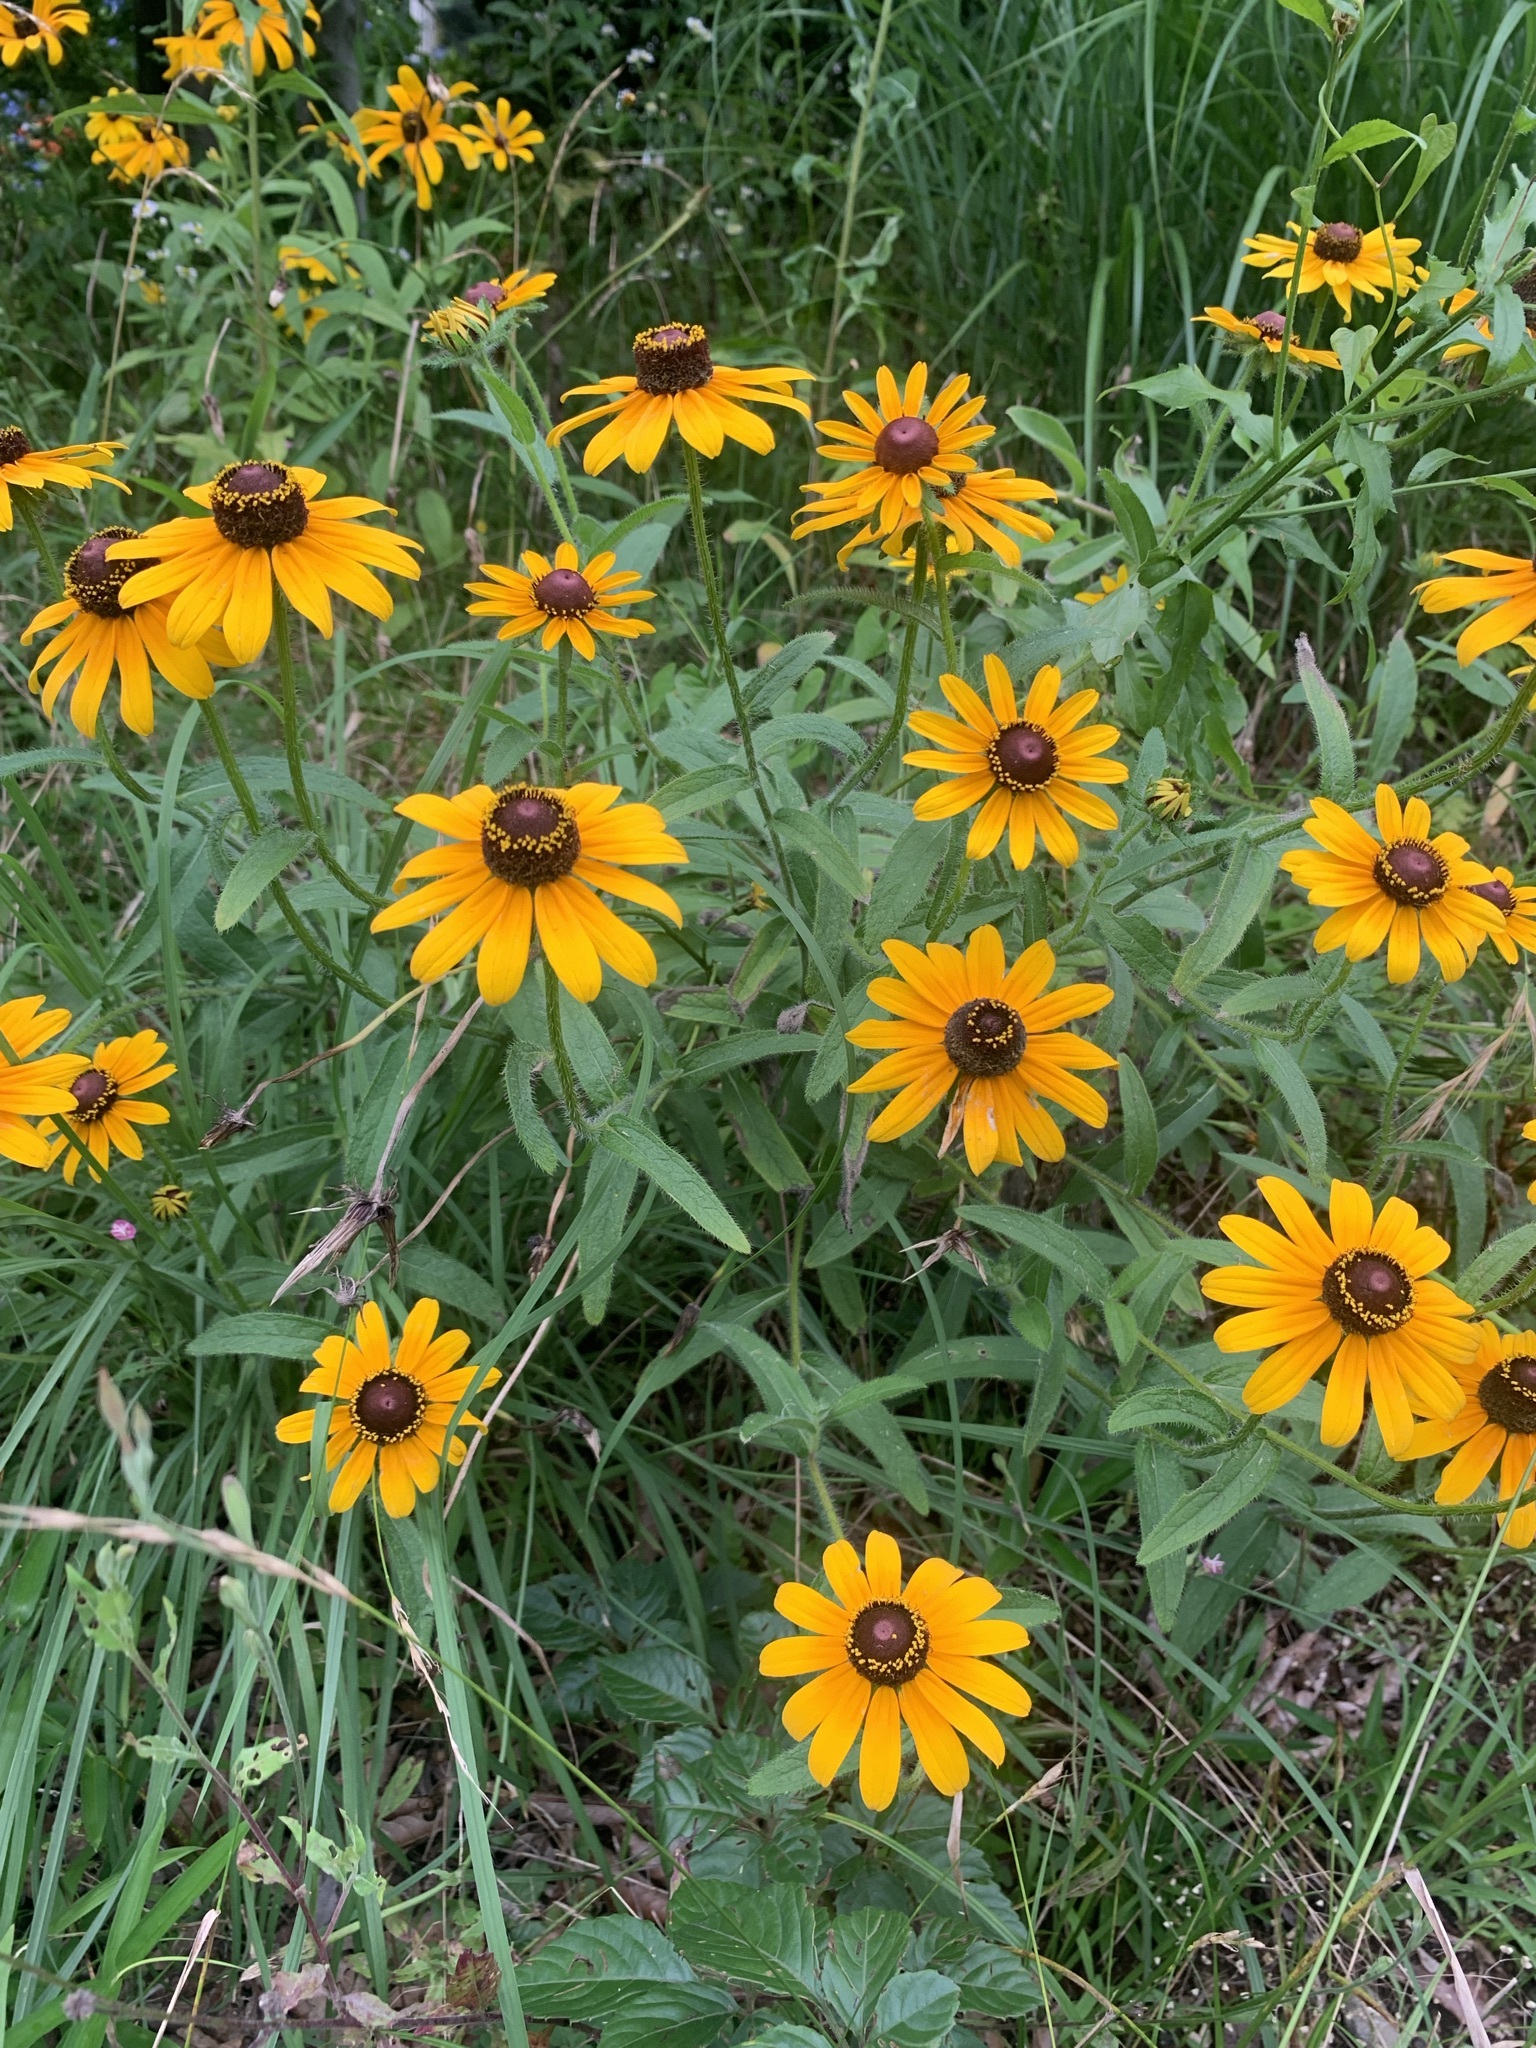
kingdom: Plantae
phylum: Tracheophyta
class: Magnoliopsida
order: Asterales
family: Asteraceae
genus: Rudbeckia
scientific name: Rudbeckia hirta
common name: Black-eyed-susan
